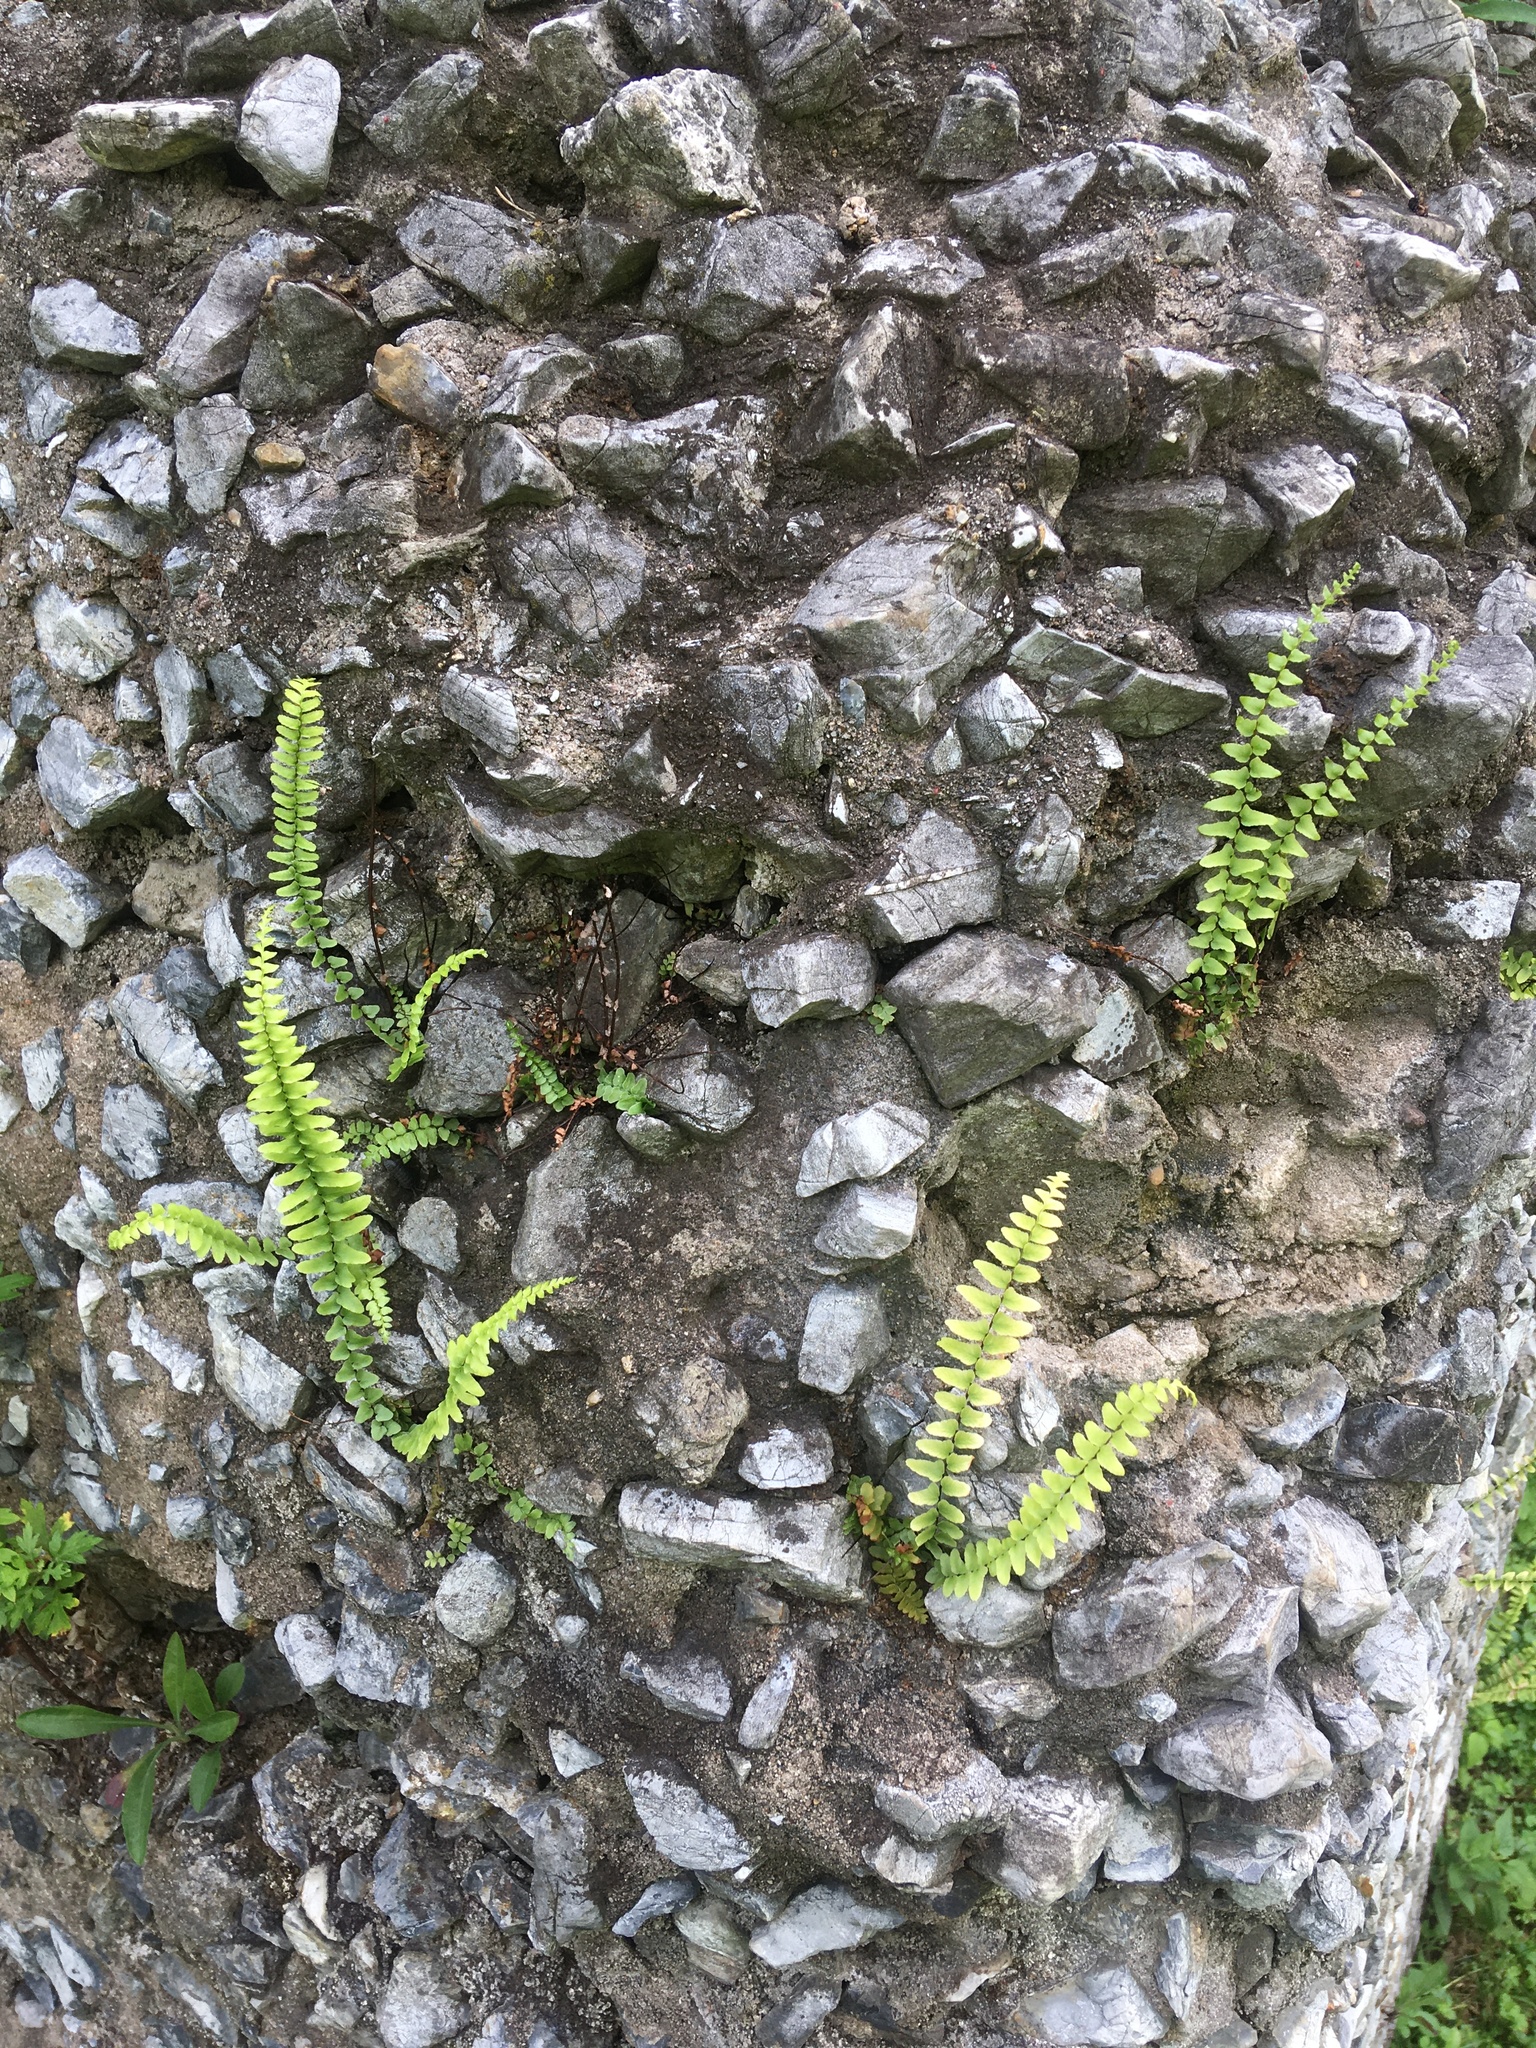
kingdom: Plantae
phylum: Tracheophyta
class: Polypodiopsida
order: Polypodiales
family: Aspleniaceae
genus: Asplenium
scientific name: Asplenium platyneuron
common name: Ebony spleenwort
